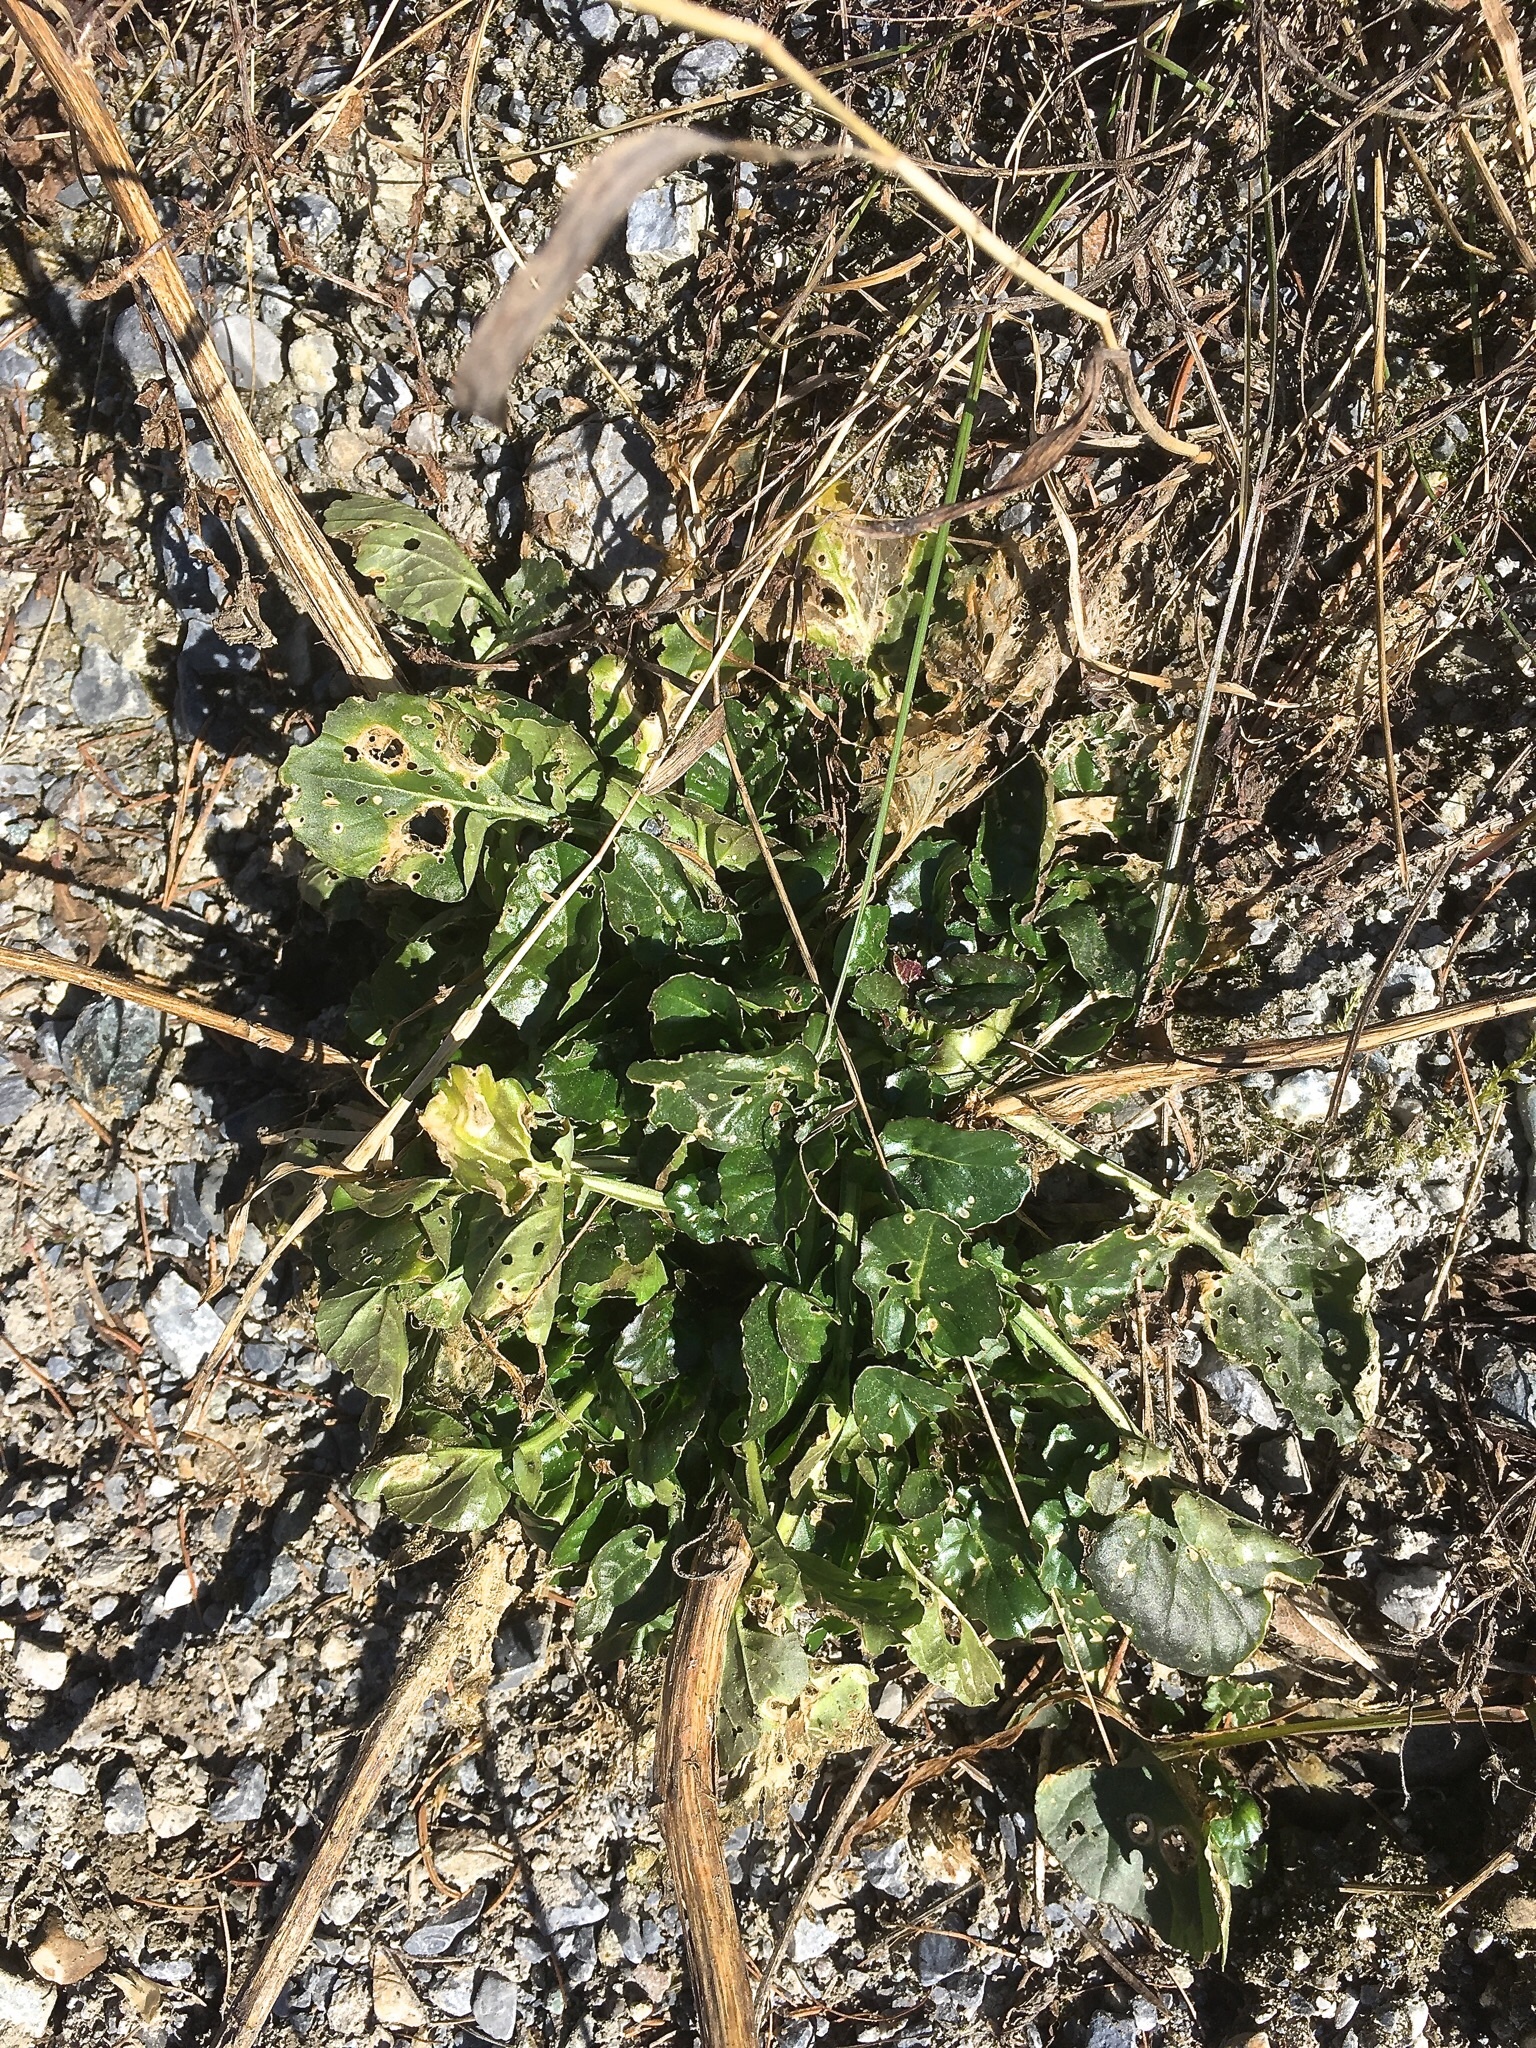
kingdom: Plantae
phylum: Tracheophyta
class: Magnoliopsida
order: Brassicales
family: Brassicaceae
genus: Barbarea
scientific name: Barbarea vulgaris
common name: Cressy-greens
